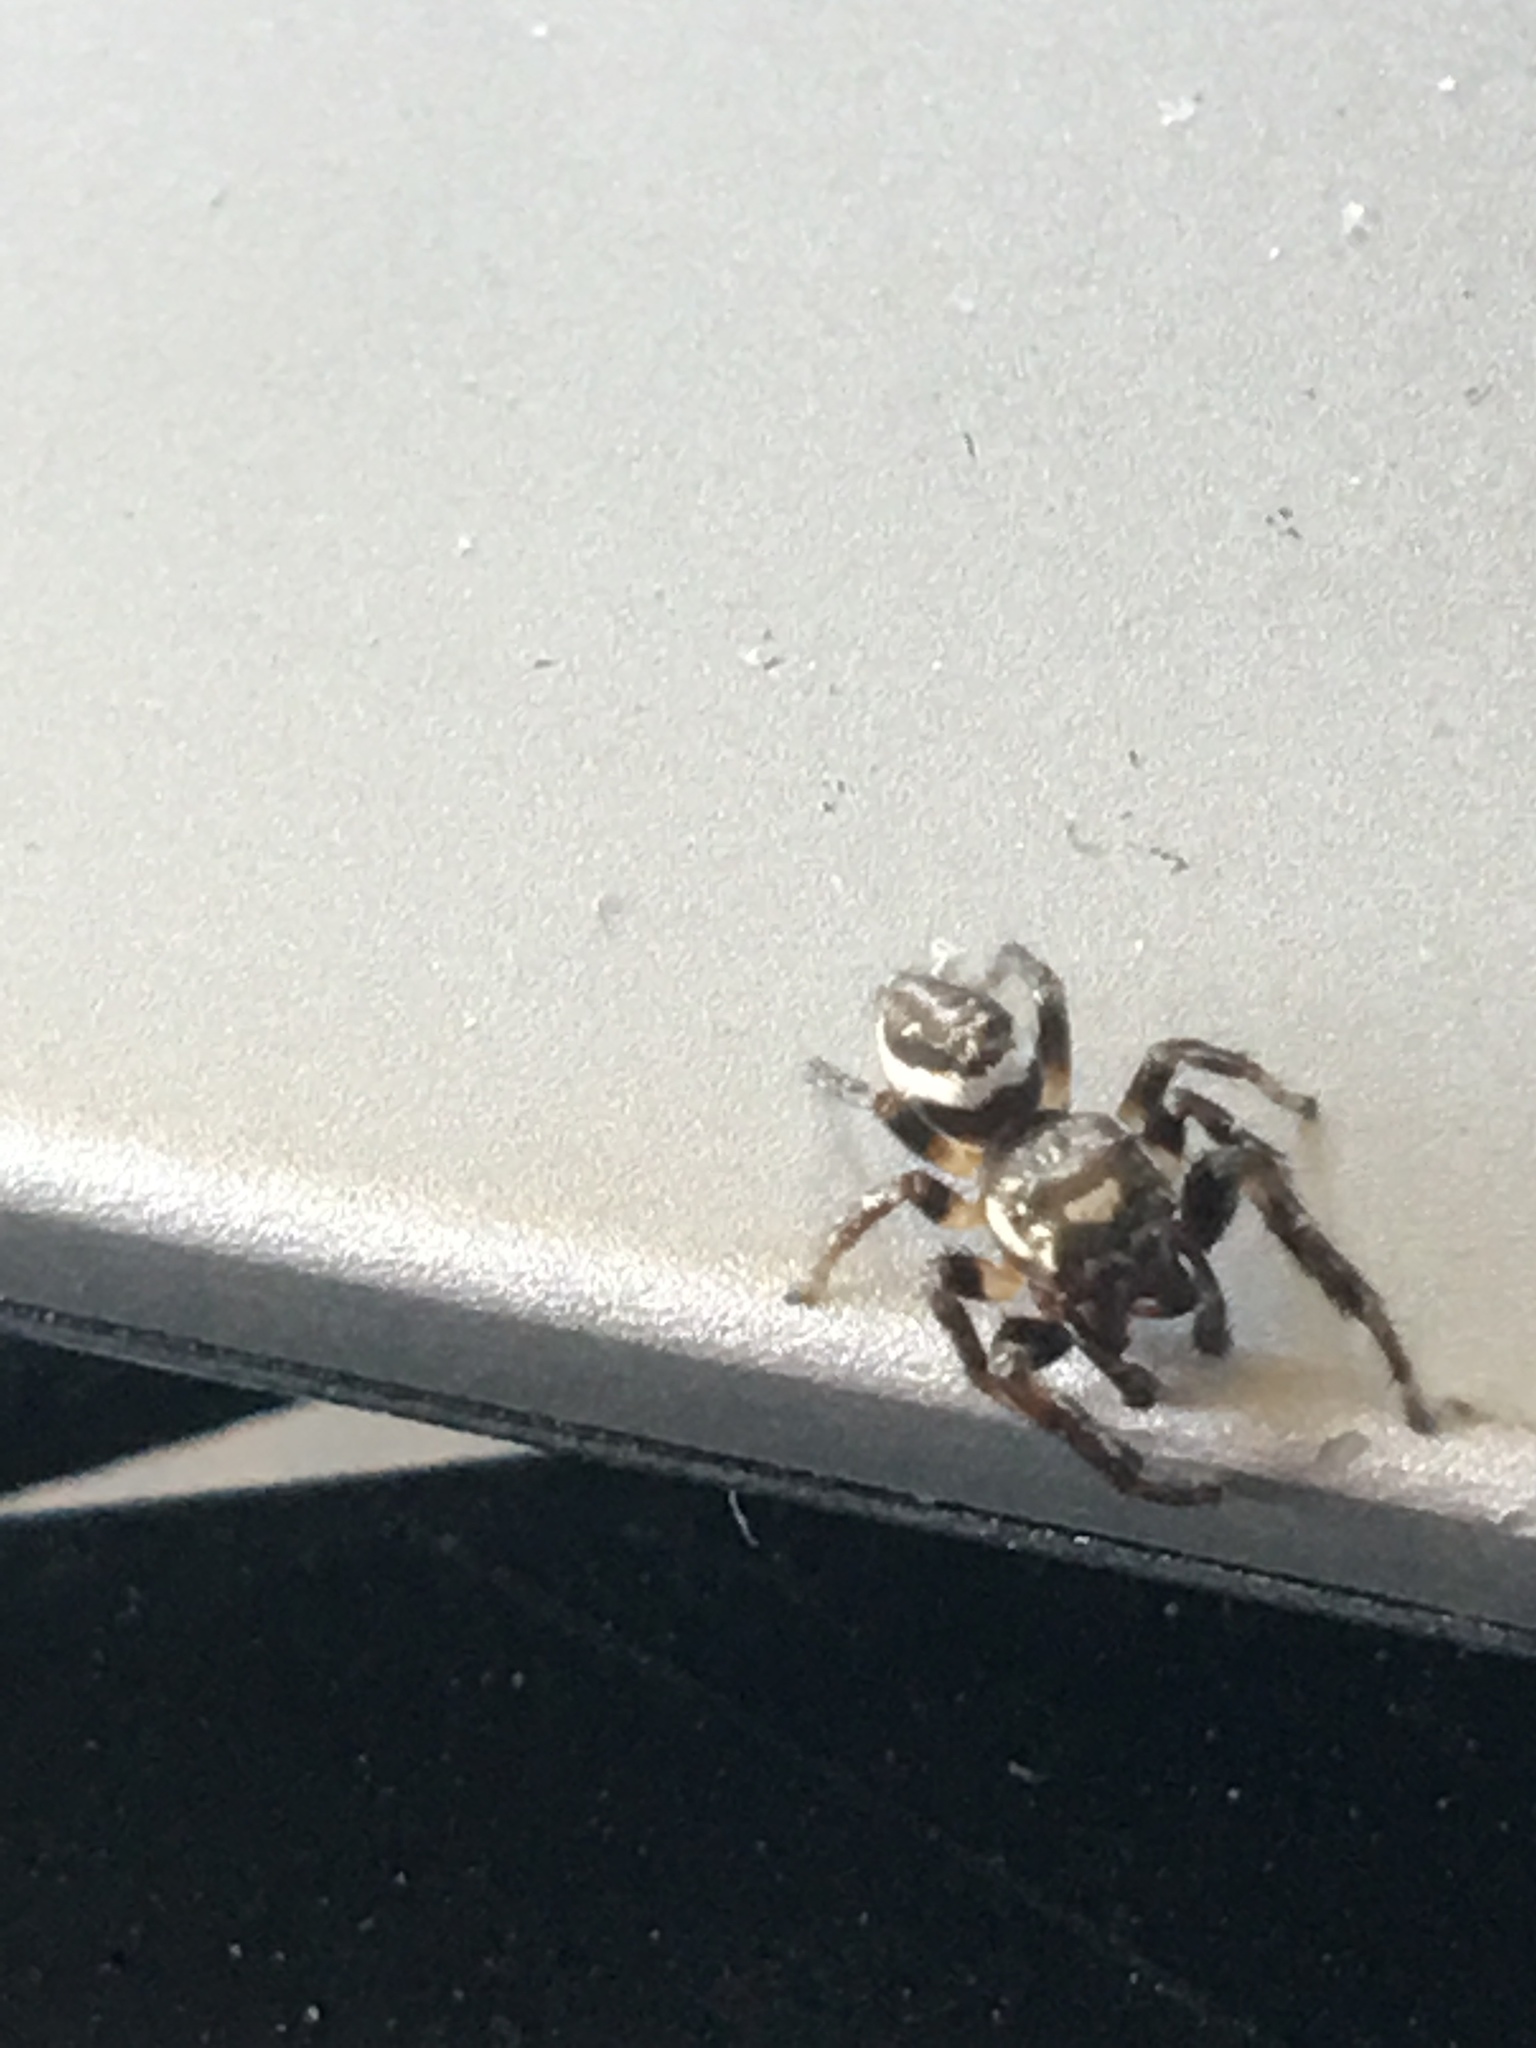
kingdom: Animalia
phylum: Arthropoda
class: Arachnida
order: Araneae
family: Salticidae
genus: Eris
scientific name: Eris militaris
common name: Bronze jumper
